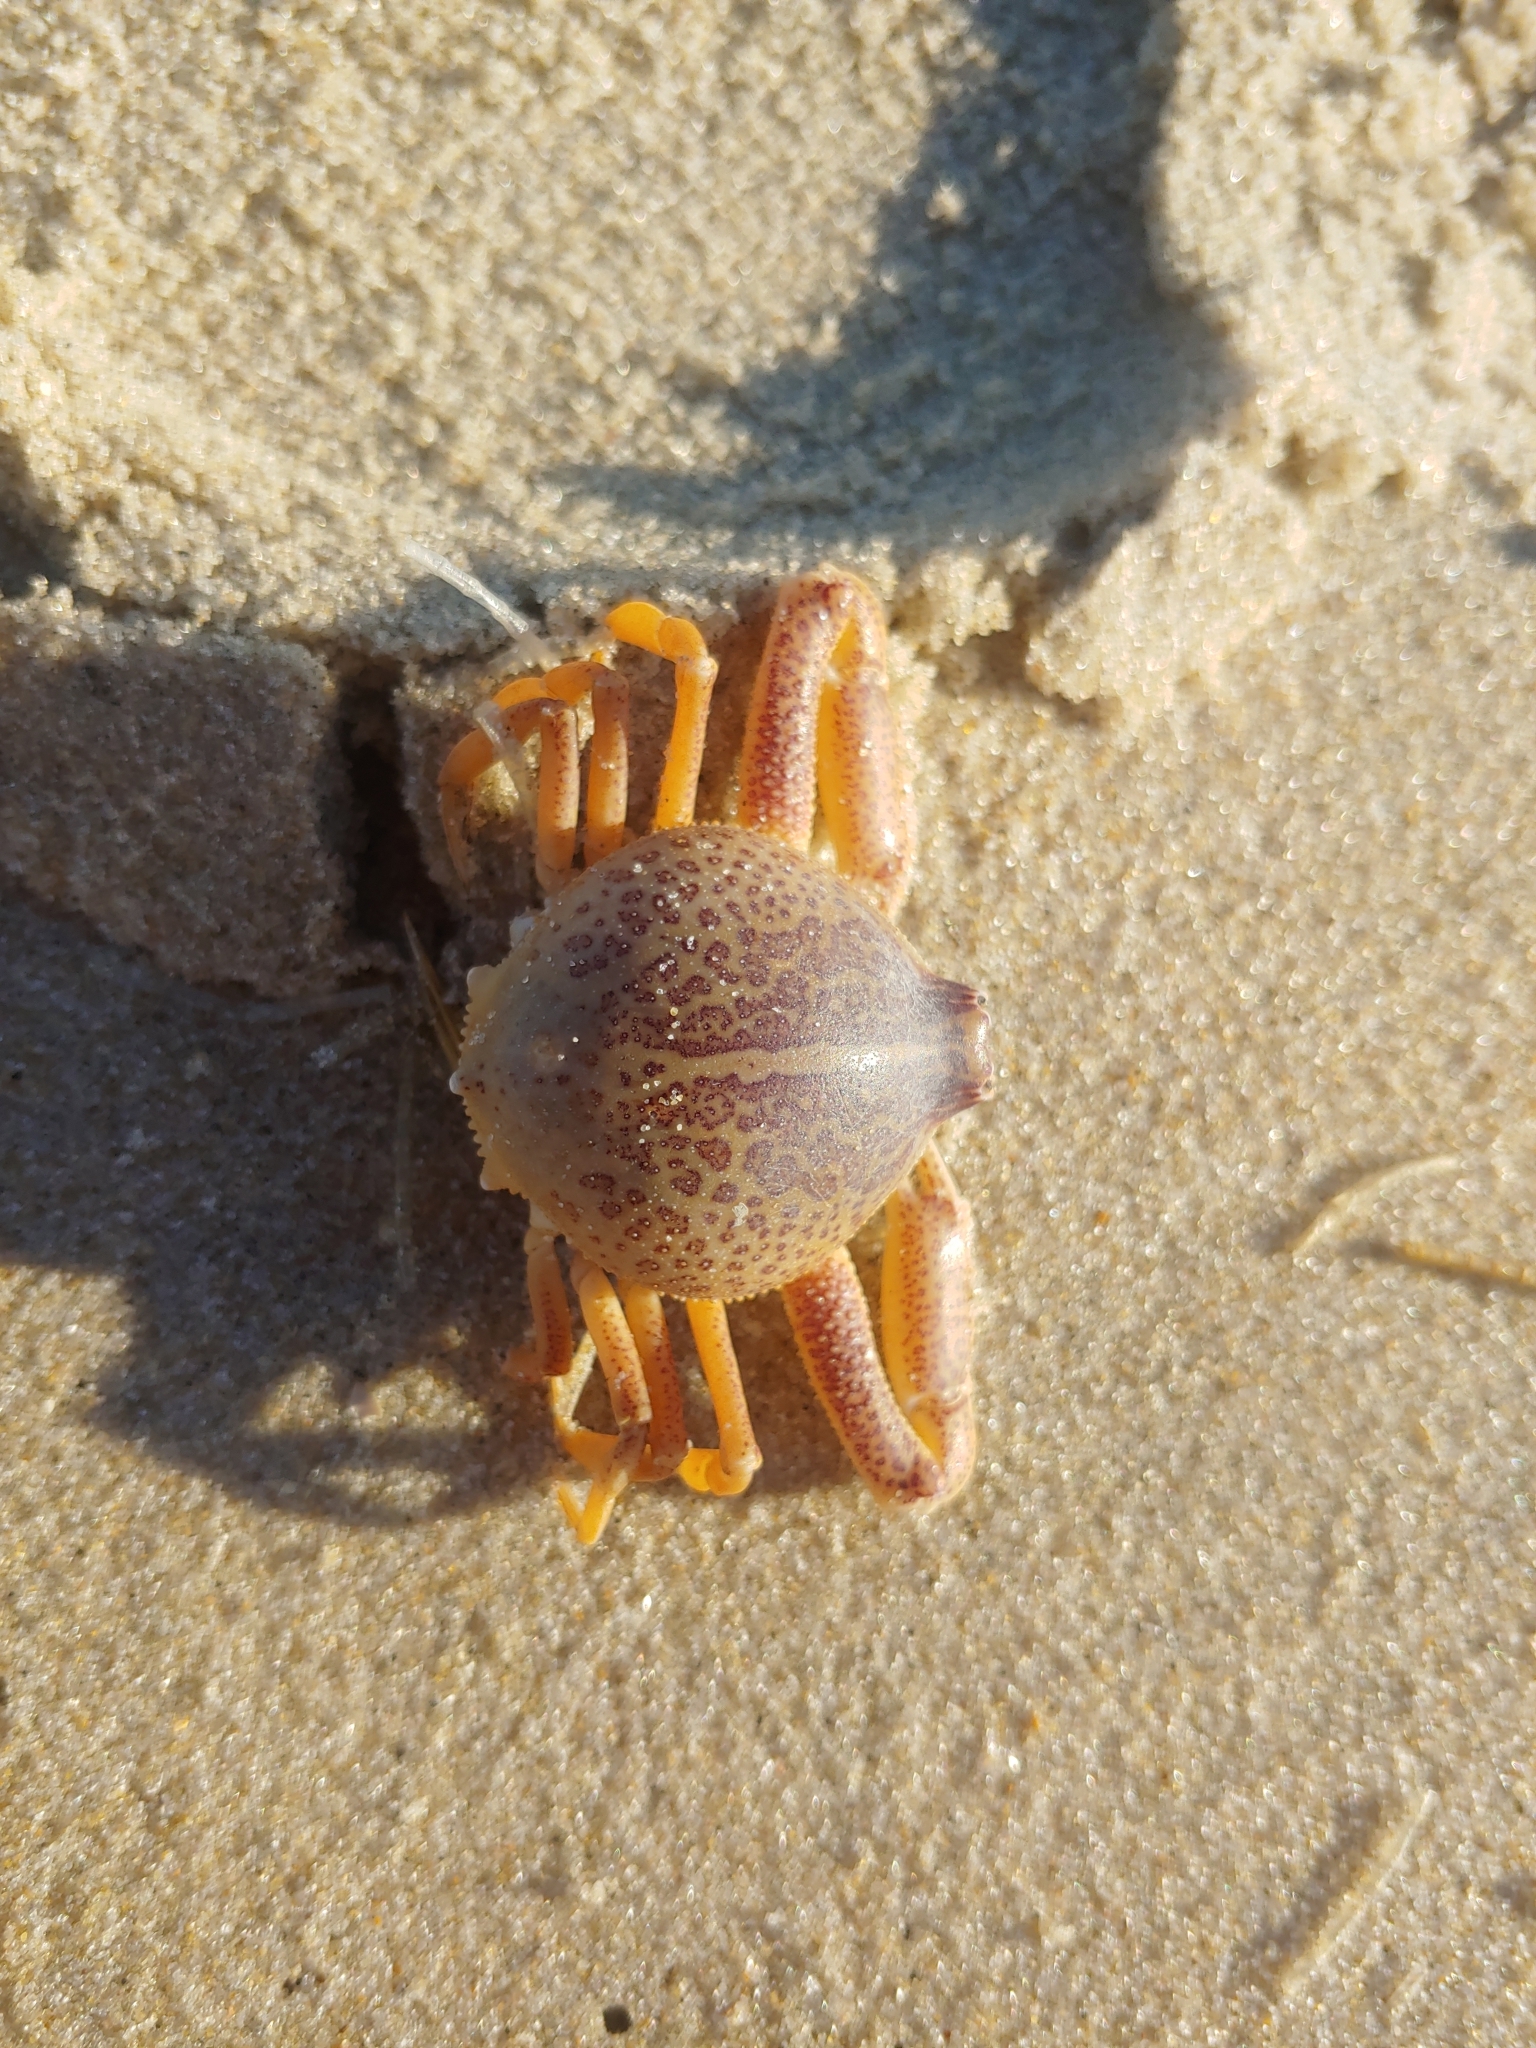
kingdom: Animalia
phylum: Arthropoda
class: Malacostraca
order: Decapoda
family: Leucosiidae
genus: Persephona
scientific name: Persephona aquilonaris
